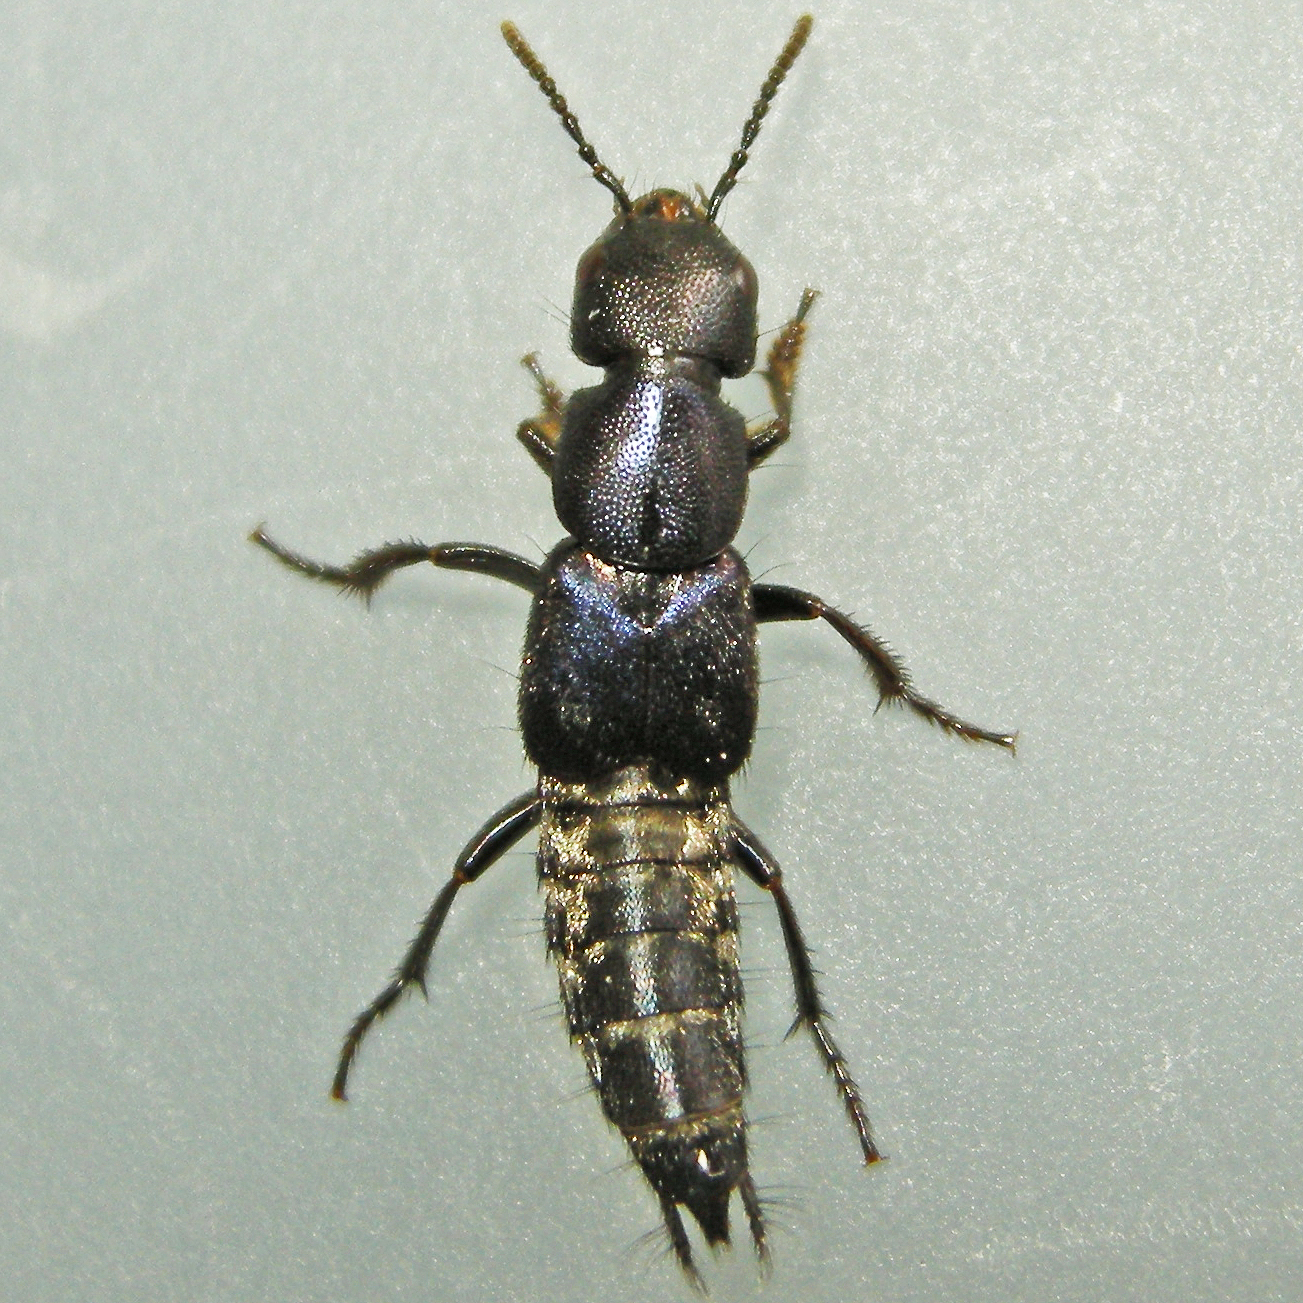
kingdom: Animalia
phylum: Arthropoda
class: Insecta
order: Coleoptera
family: Staphylinidae
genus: Platydracus
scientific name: Platydracus violaceus
